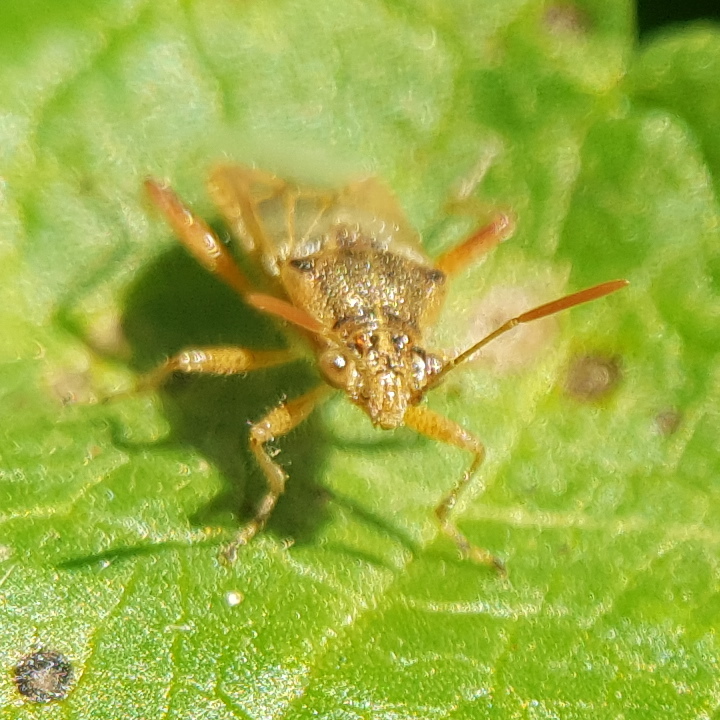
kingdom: Animalia
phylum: Arthropoda
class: Insecta
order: Hemiptera
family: Rhopalidae
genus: Liorhyssus
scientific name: Liorhyssus hyalinus
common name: Scentless plant bug
